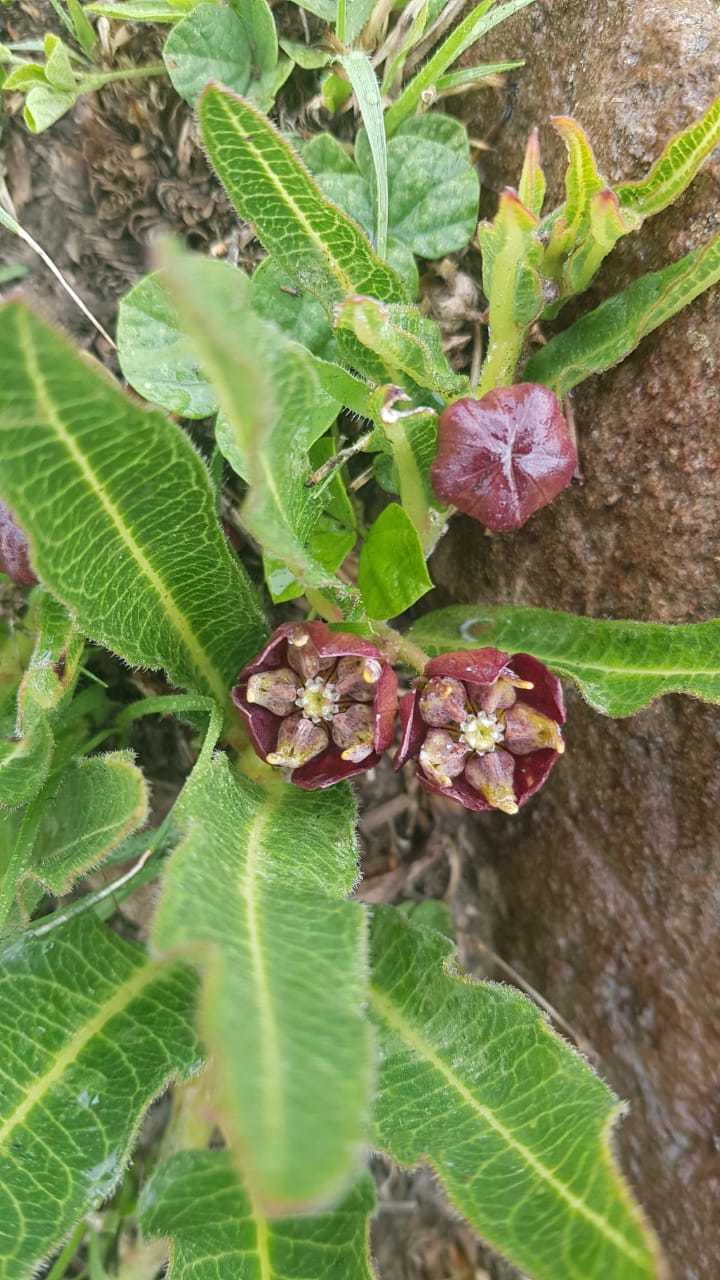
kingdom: Plantae
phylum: Tracheophyta
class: Magnoliopsida
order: Gentianales
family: Apocynaceae
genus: Pachycarpus
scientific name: Pachycarpus concolor
